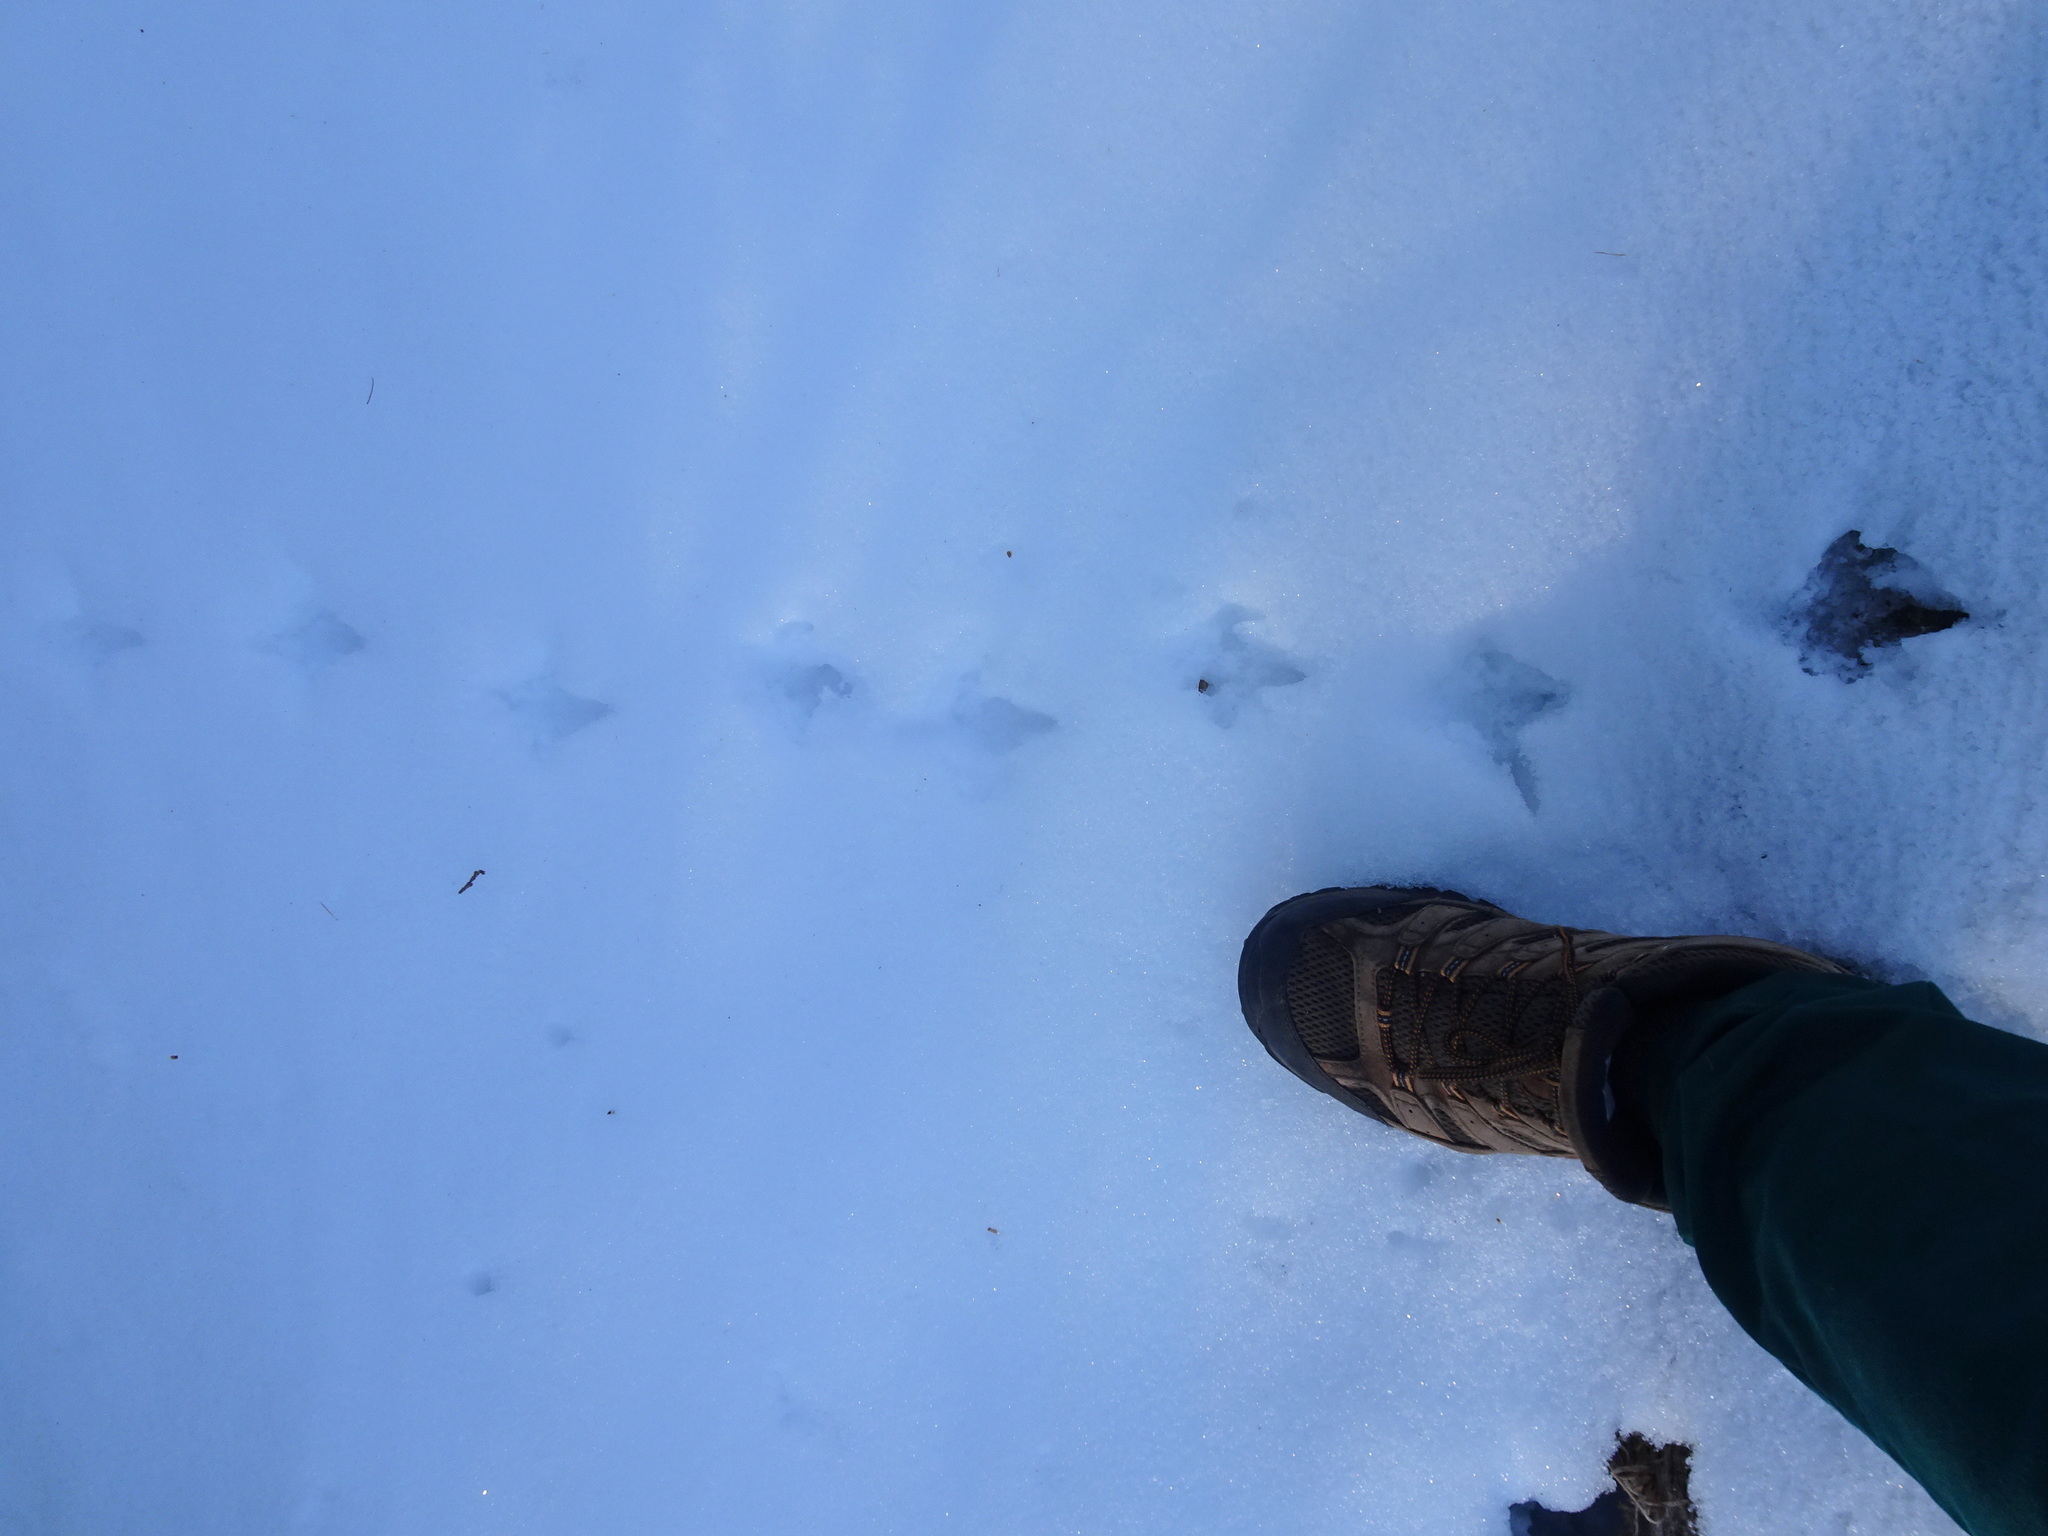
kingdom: Animalia
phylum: Chordata
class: Aves
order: Galliformes
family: Phasianidae
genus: Bonasa
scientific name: Bonasa umbellus
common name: Ruffed grouse
